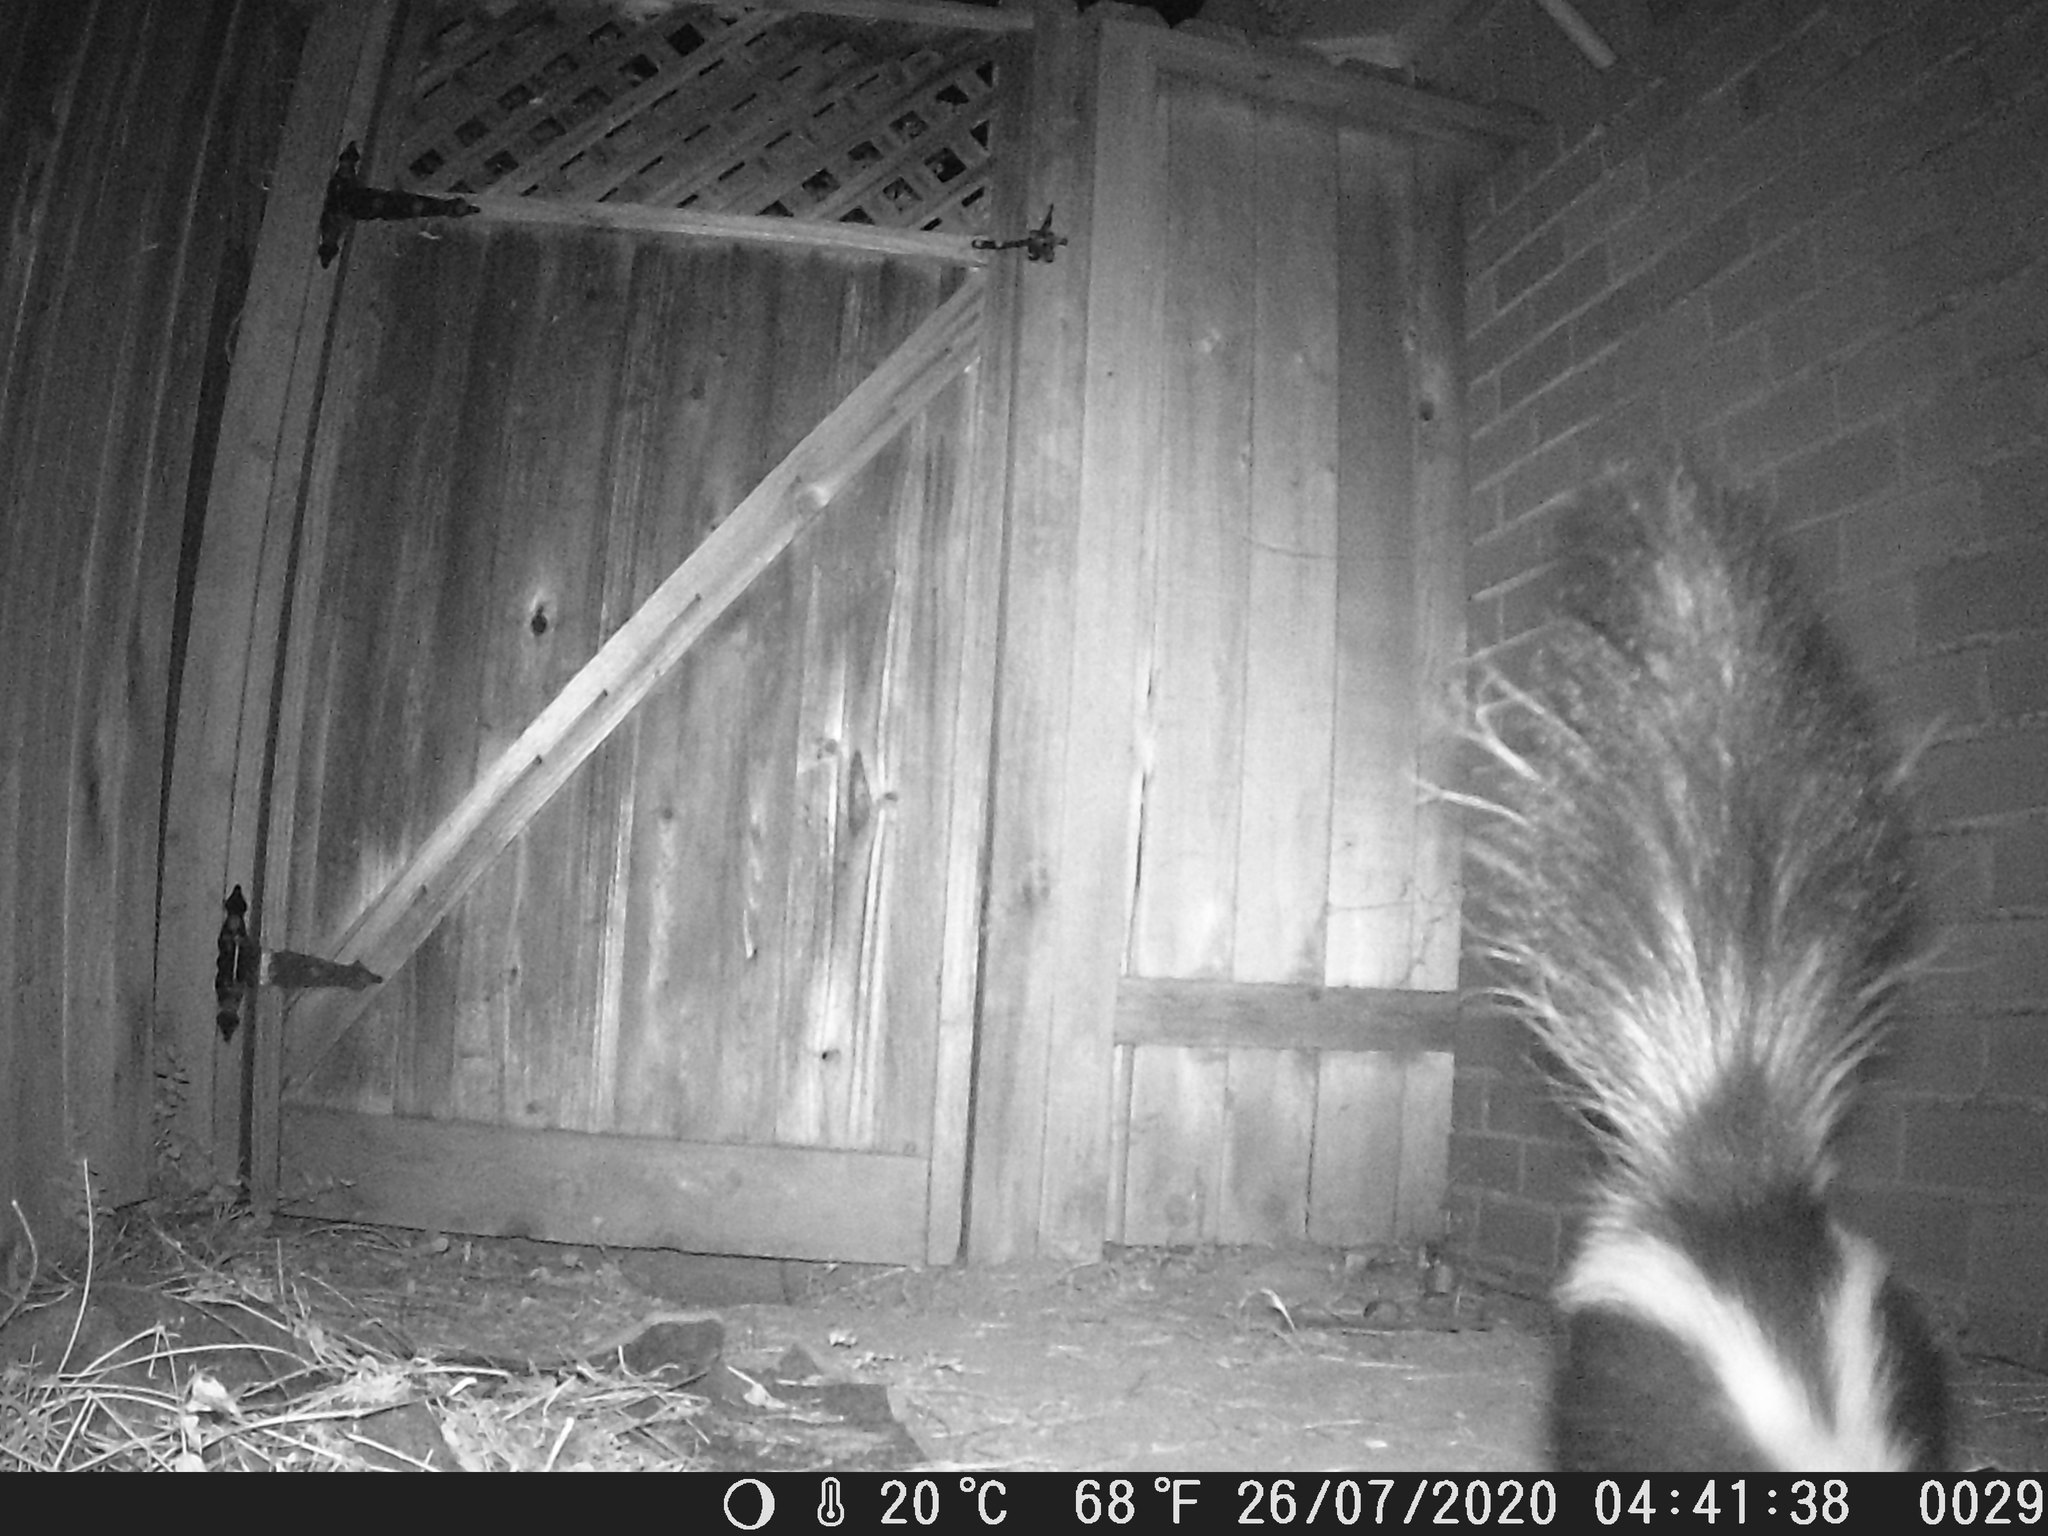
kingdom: Animalia
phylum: Chordata
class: Mammalia
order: Carnivora
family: Mephitidae
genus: Mephitis
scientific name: Mephitis mephitis
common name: Striped skunk
